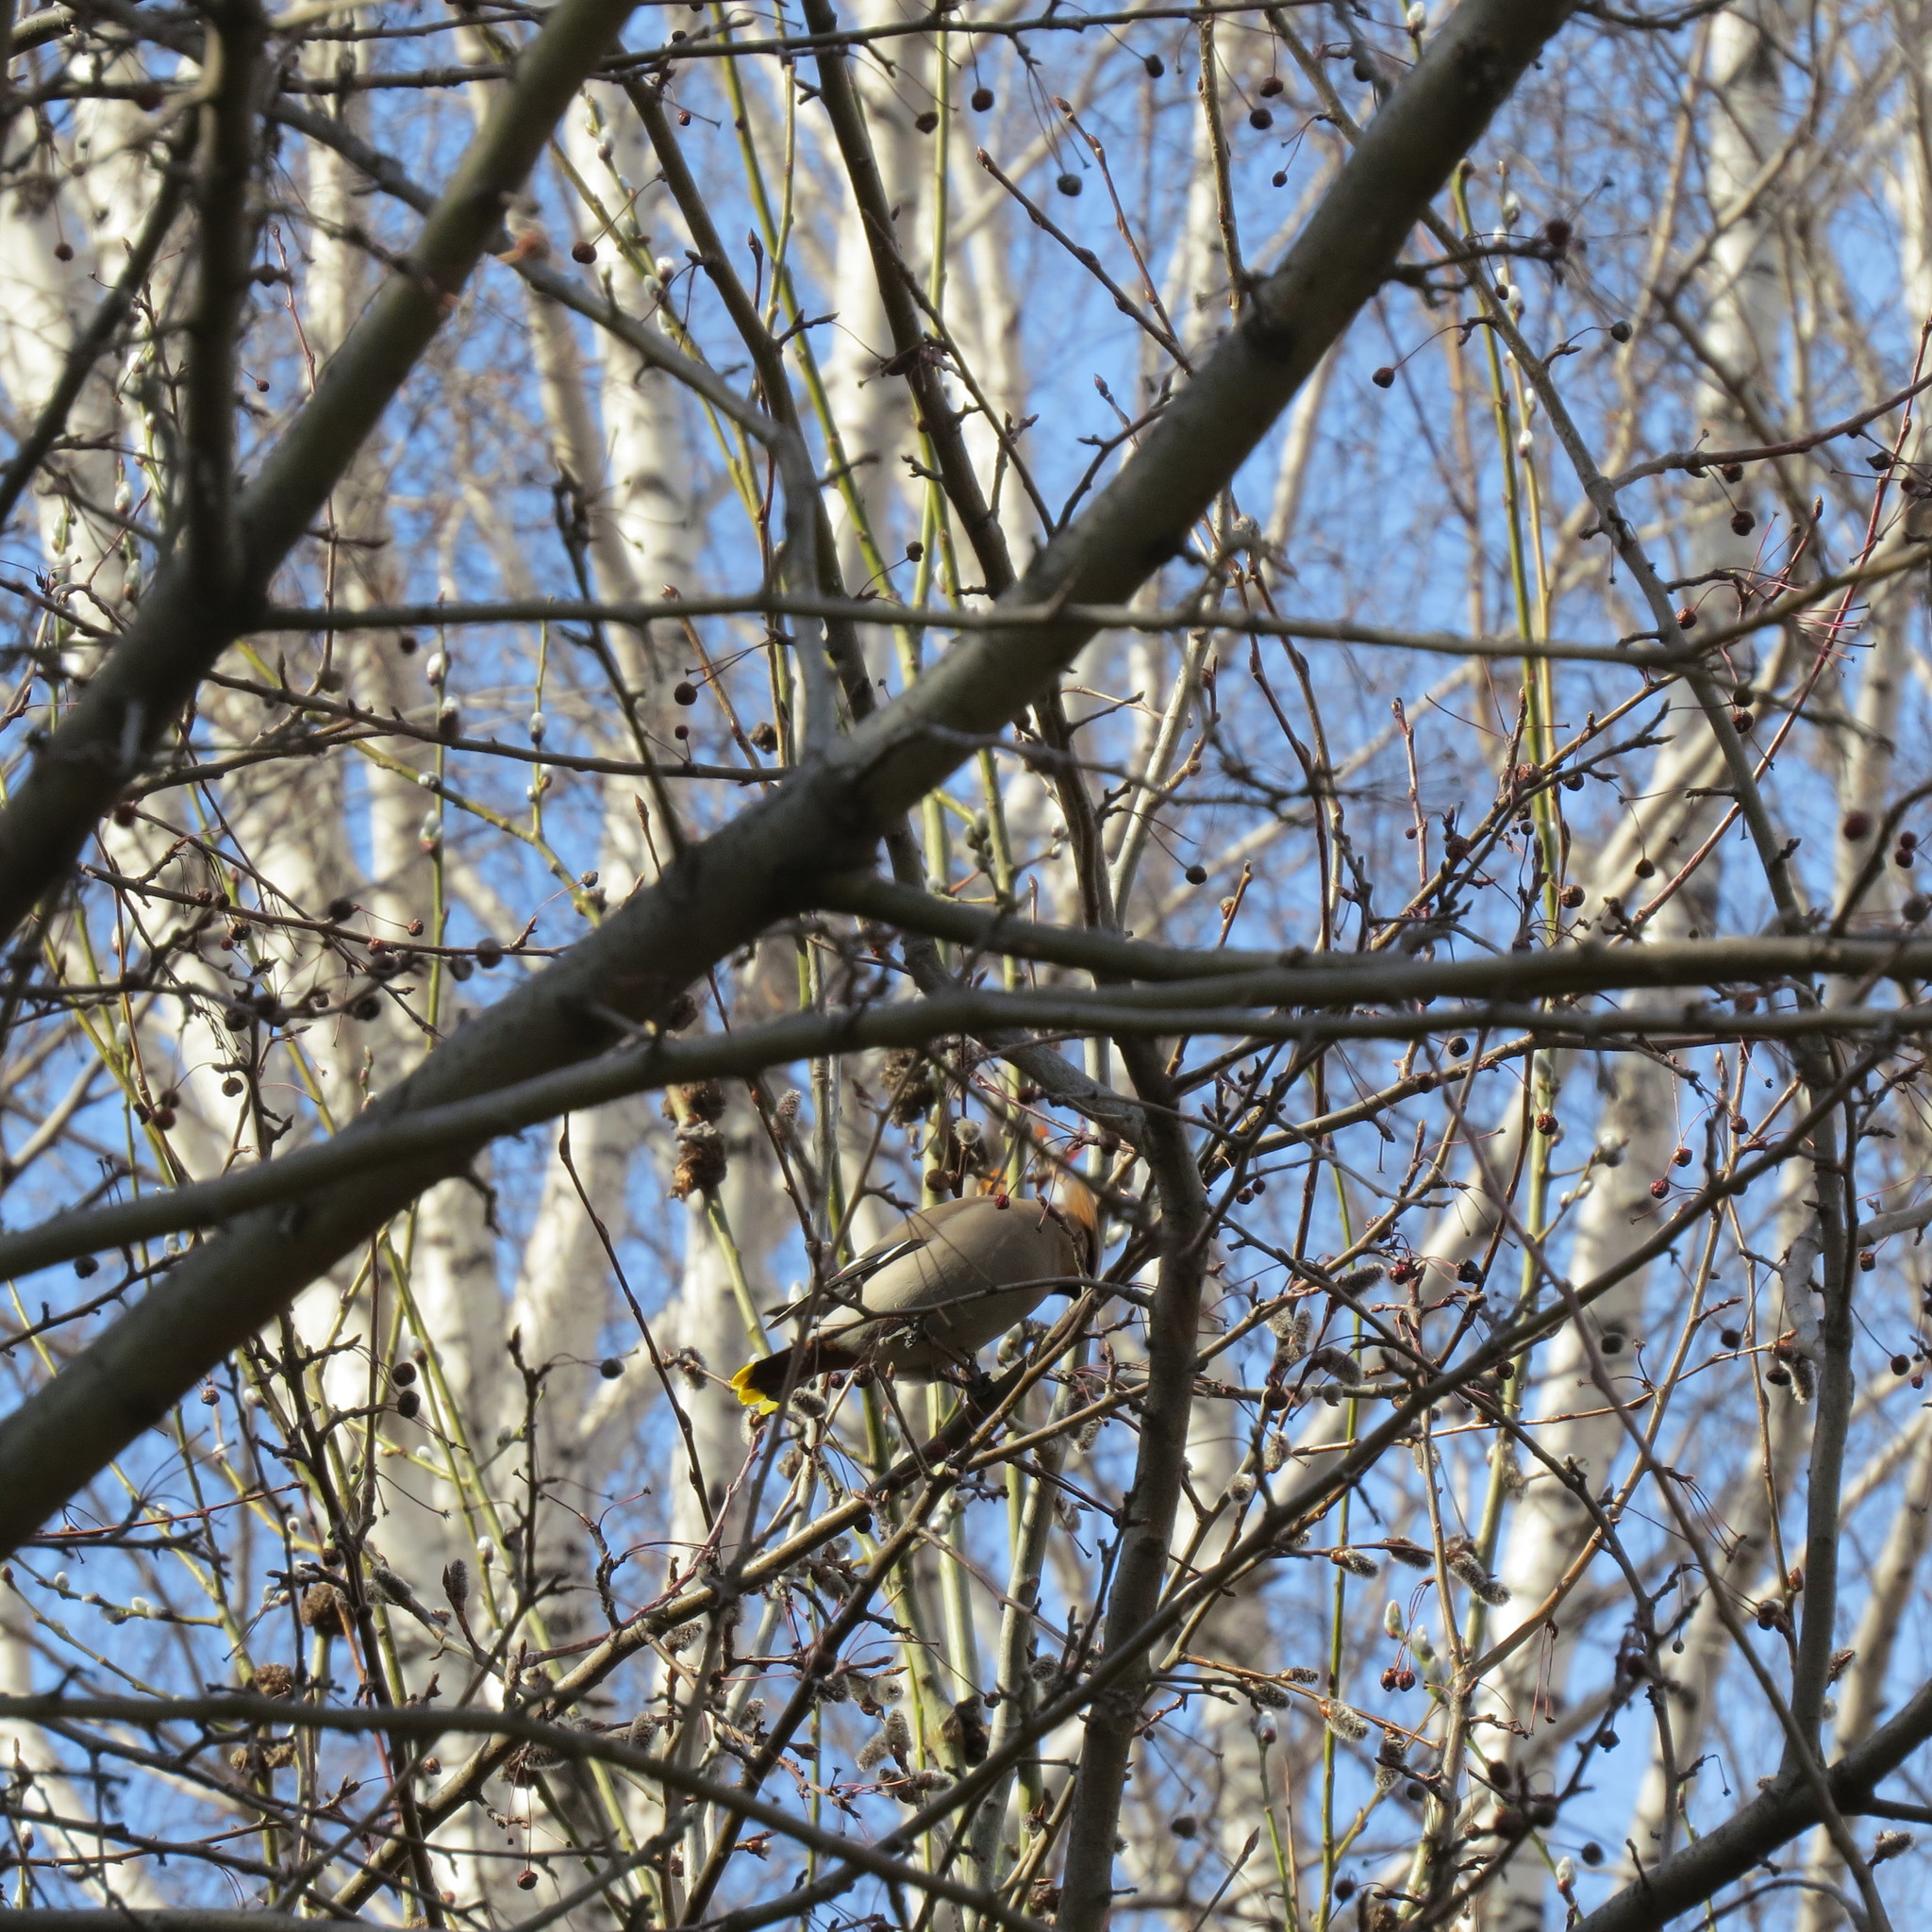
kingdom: Animalia
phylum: Chordata
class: Aves
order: Passeriformes
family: Bombycillidae
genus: Bombycilla
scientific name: Bombycilla garrulus
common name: Bohemian waxwing
